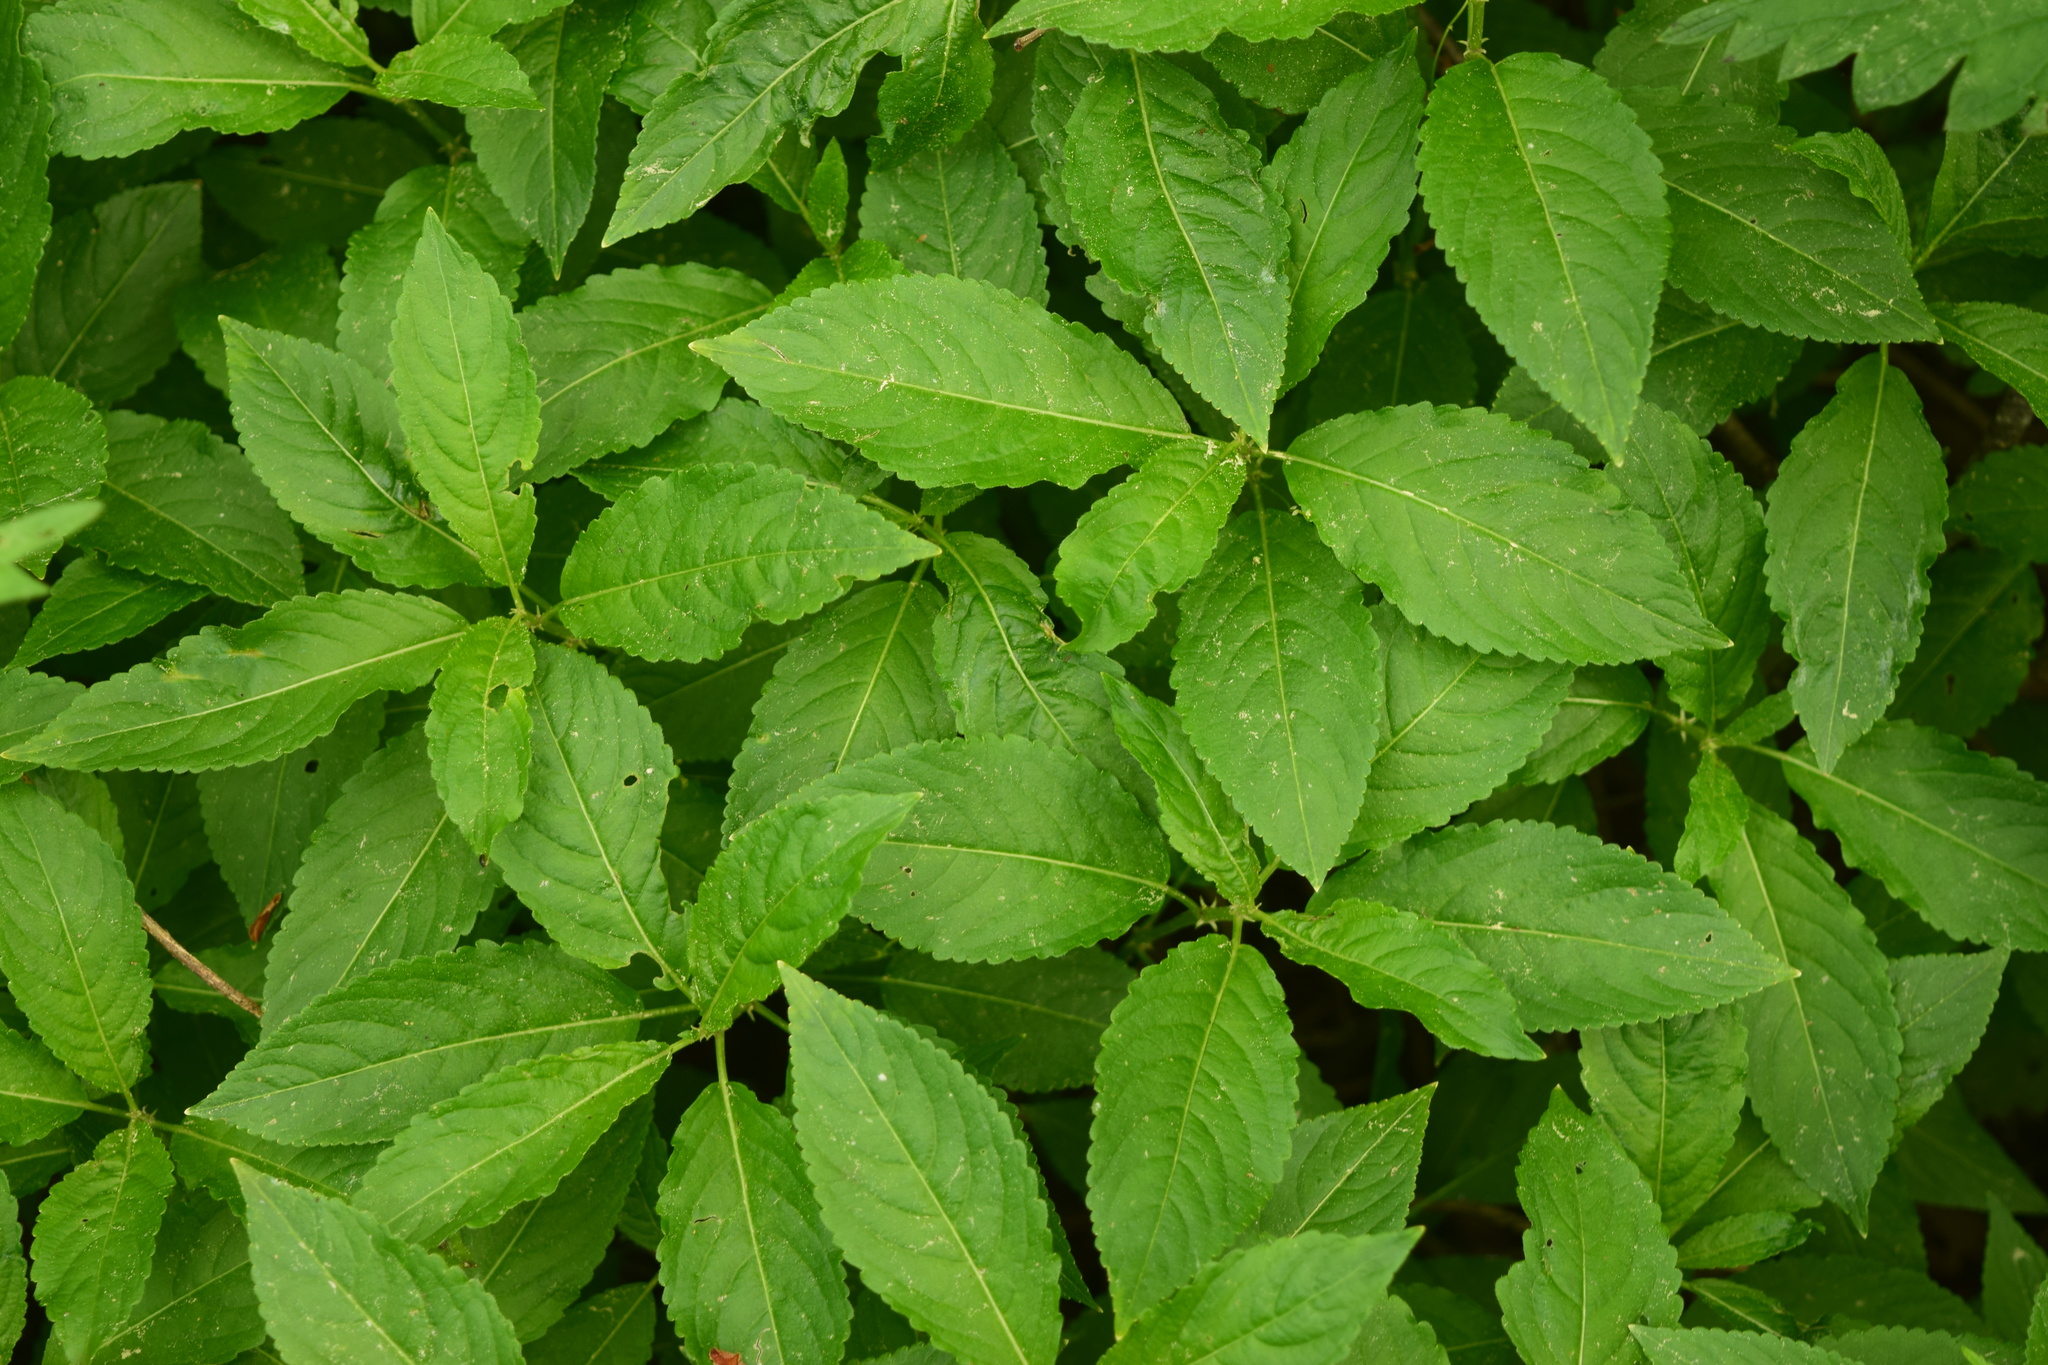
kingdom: Plantae
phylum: Tracheophyta
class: Magnoliopsida
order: Malpighiales
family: Euphorbiaceae
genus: Mercurialis
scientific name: Mercurialis perennis
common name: Dog mercury
